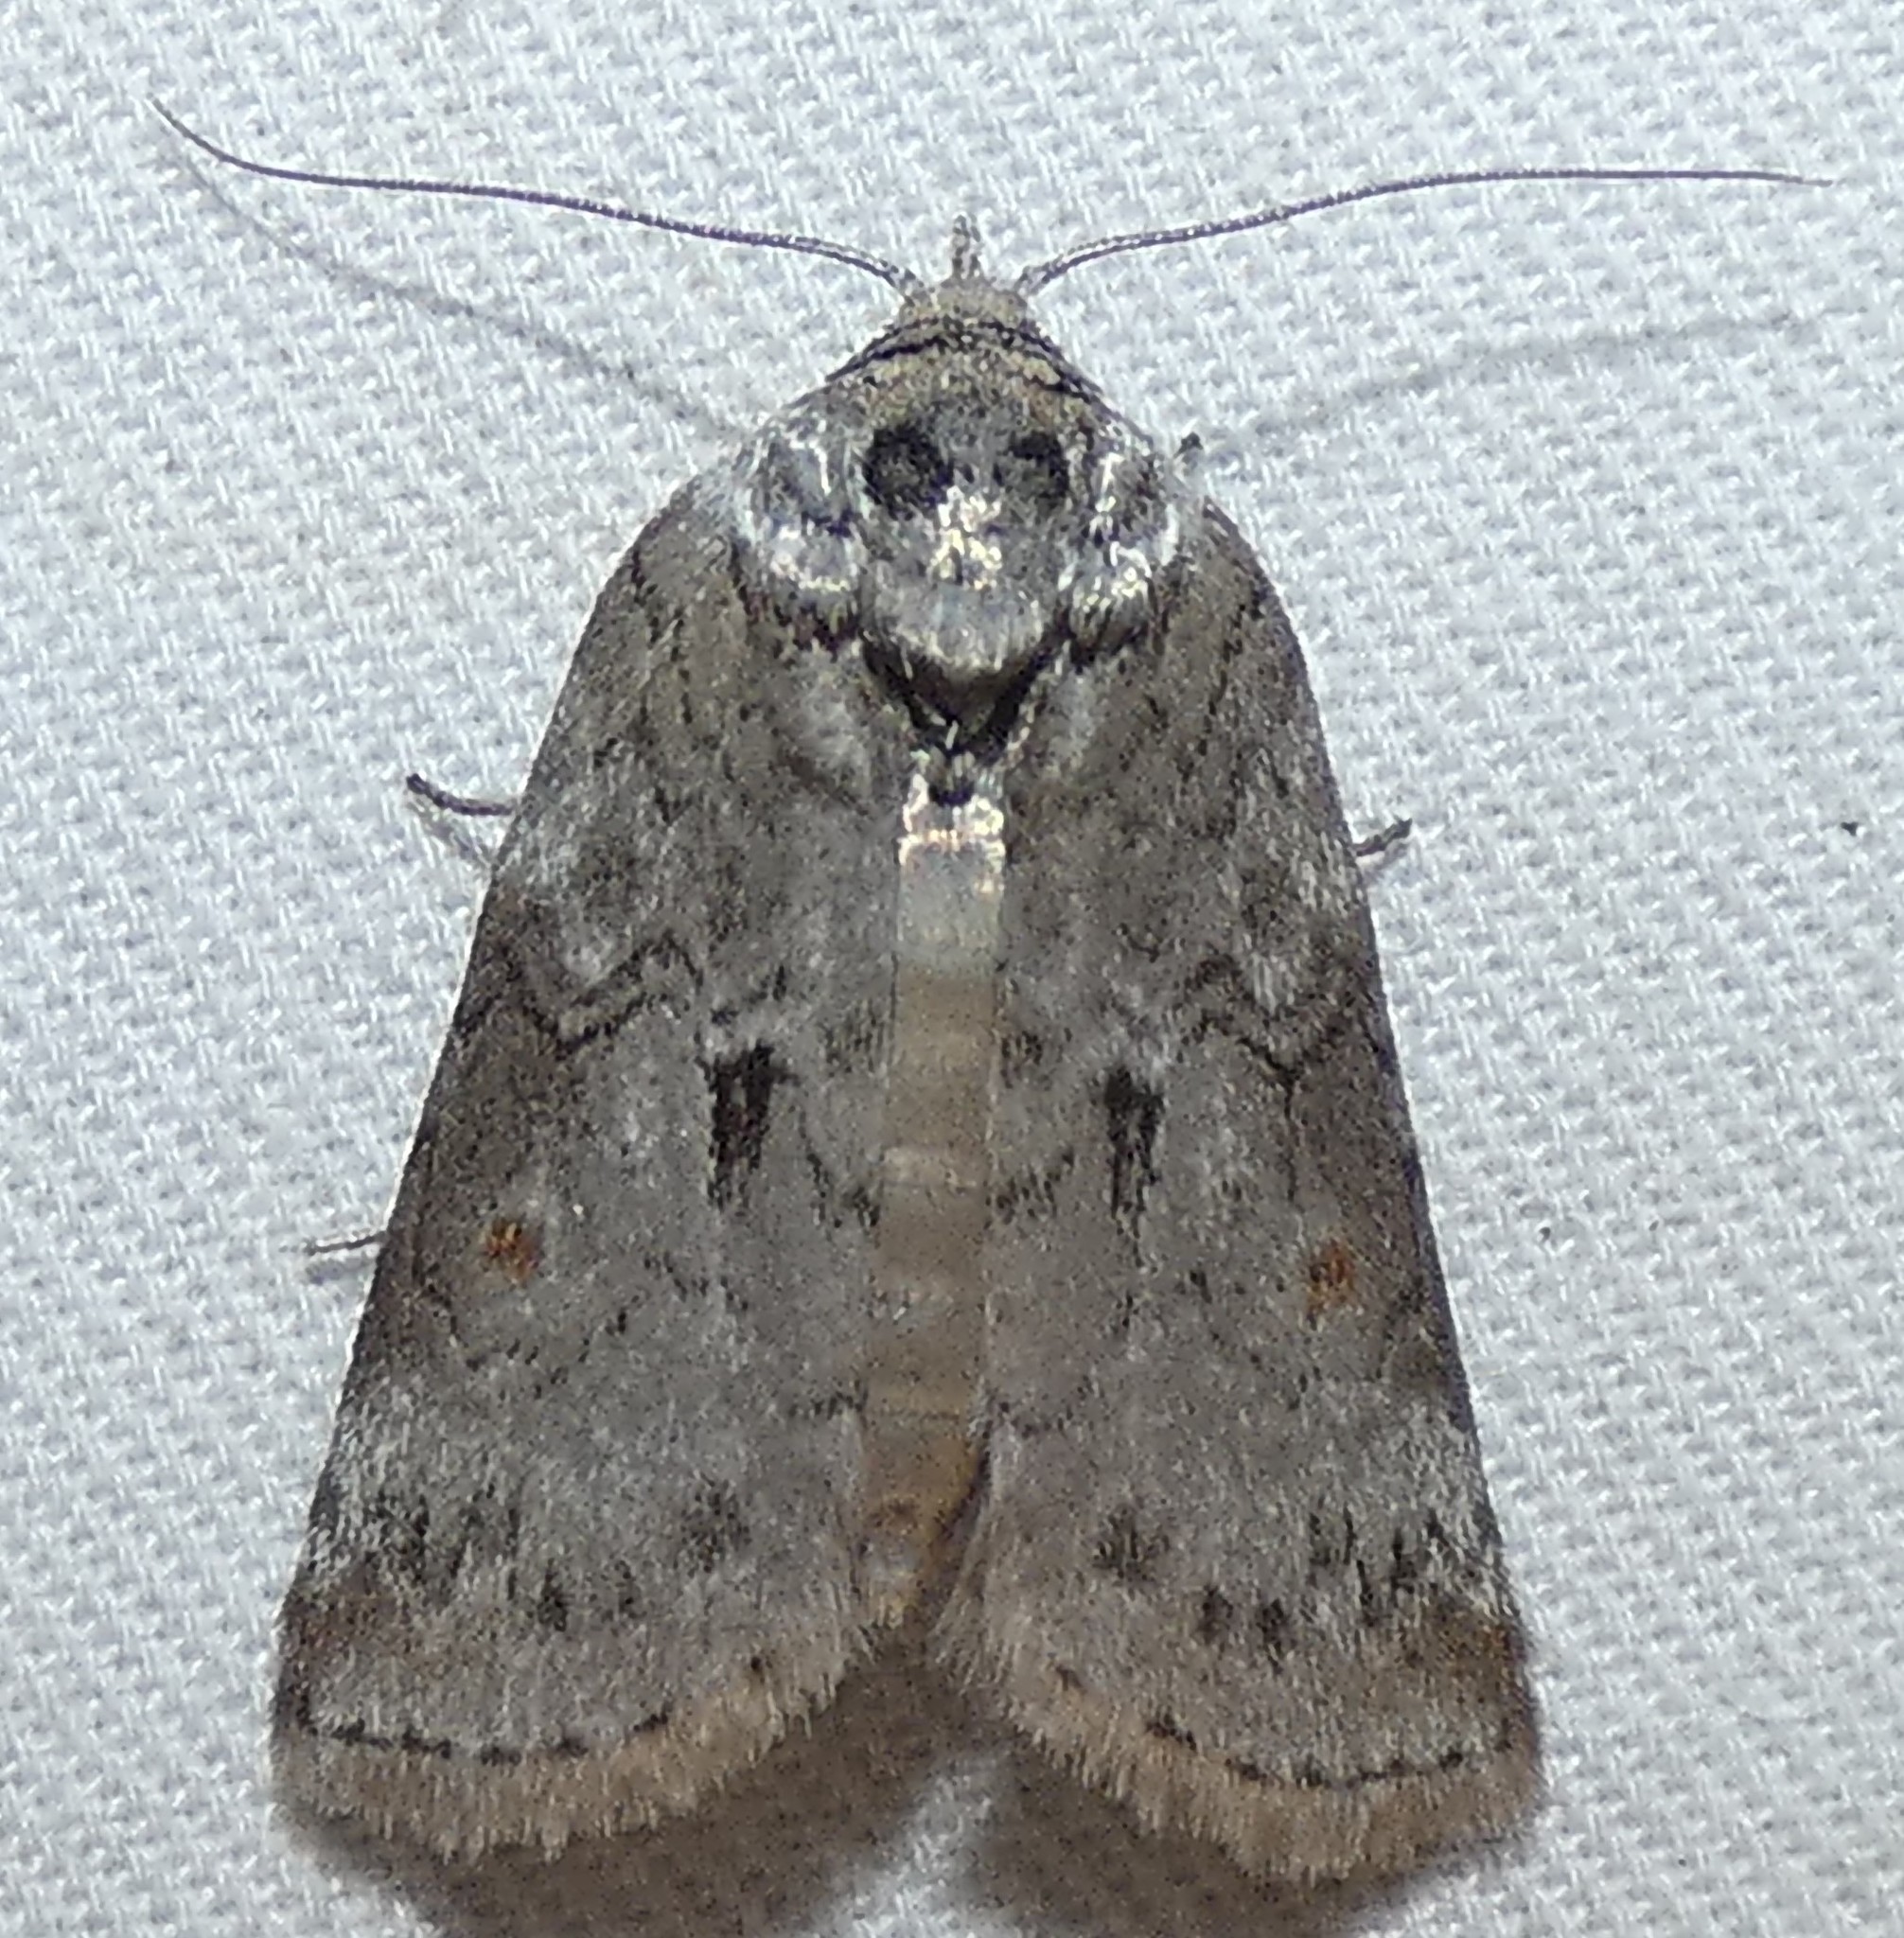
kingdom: Animalia
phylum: Arthropoda
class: Insecta
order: Lepidoptera
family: Nolidae
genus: Nycteola
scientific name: Nycteola metaspilella
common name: Forgotten frigid owlet
